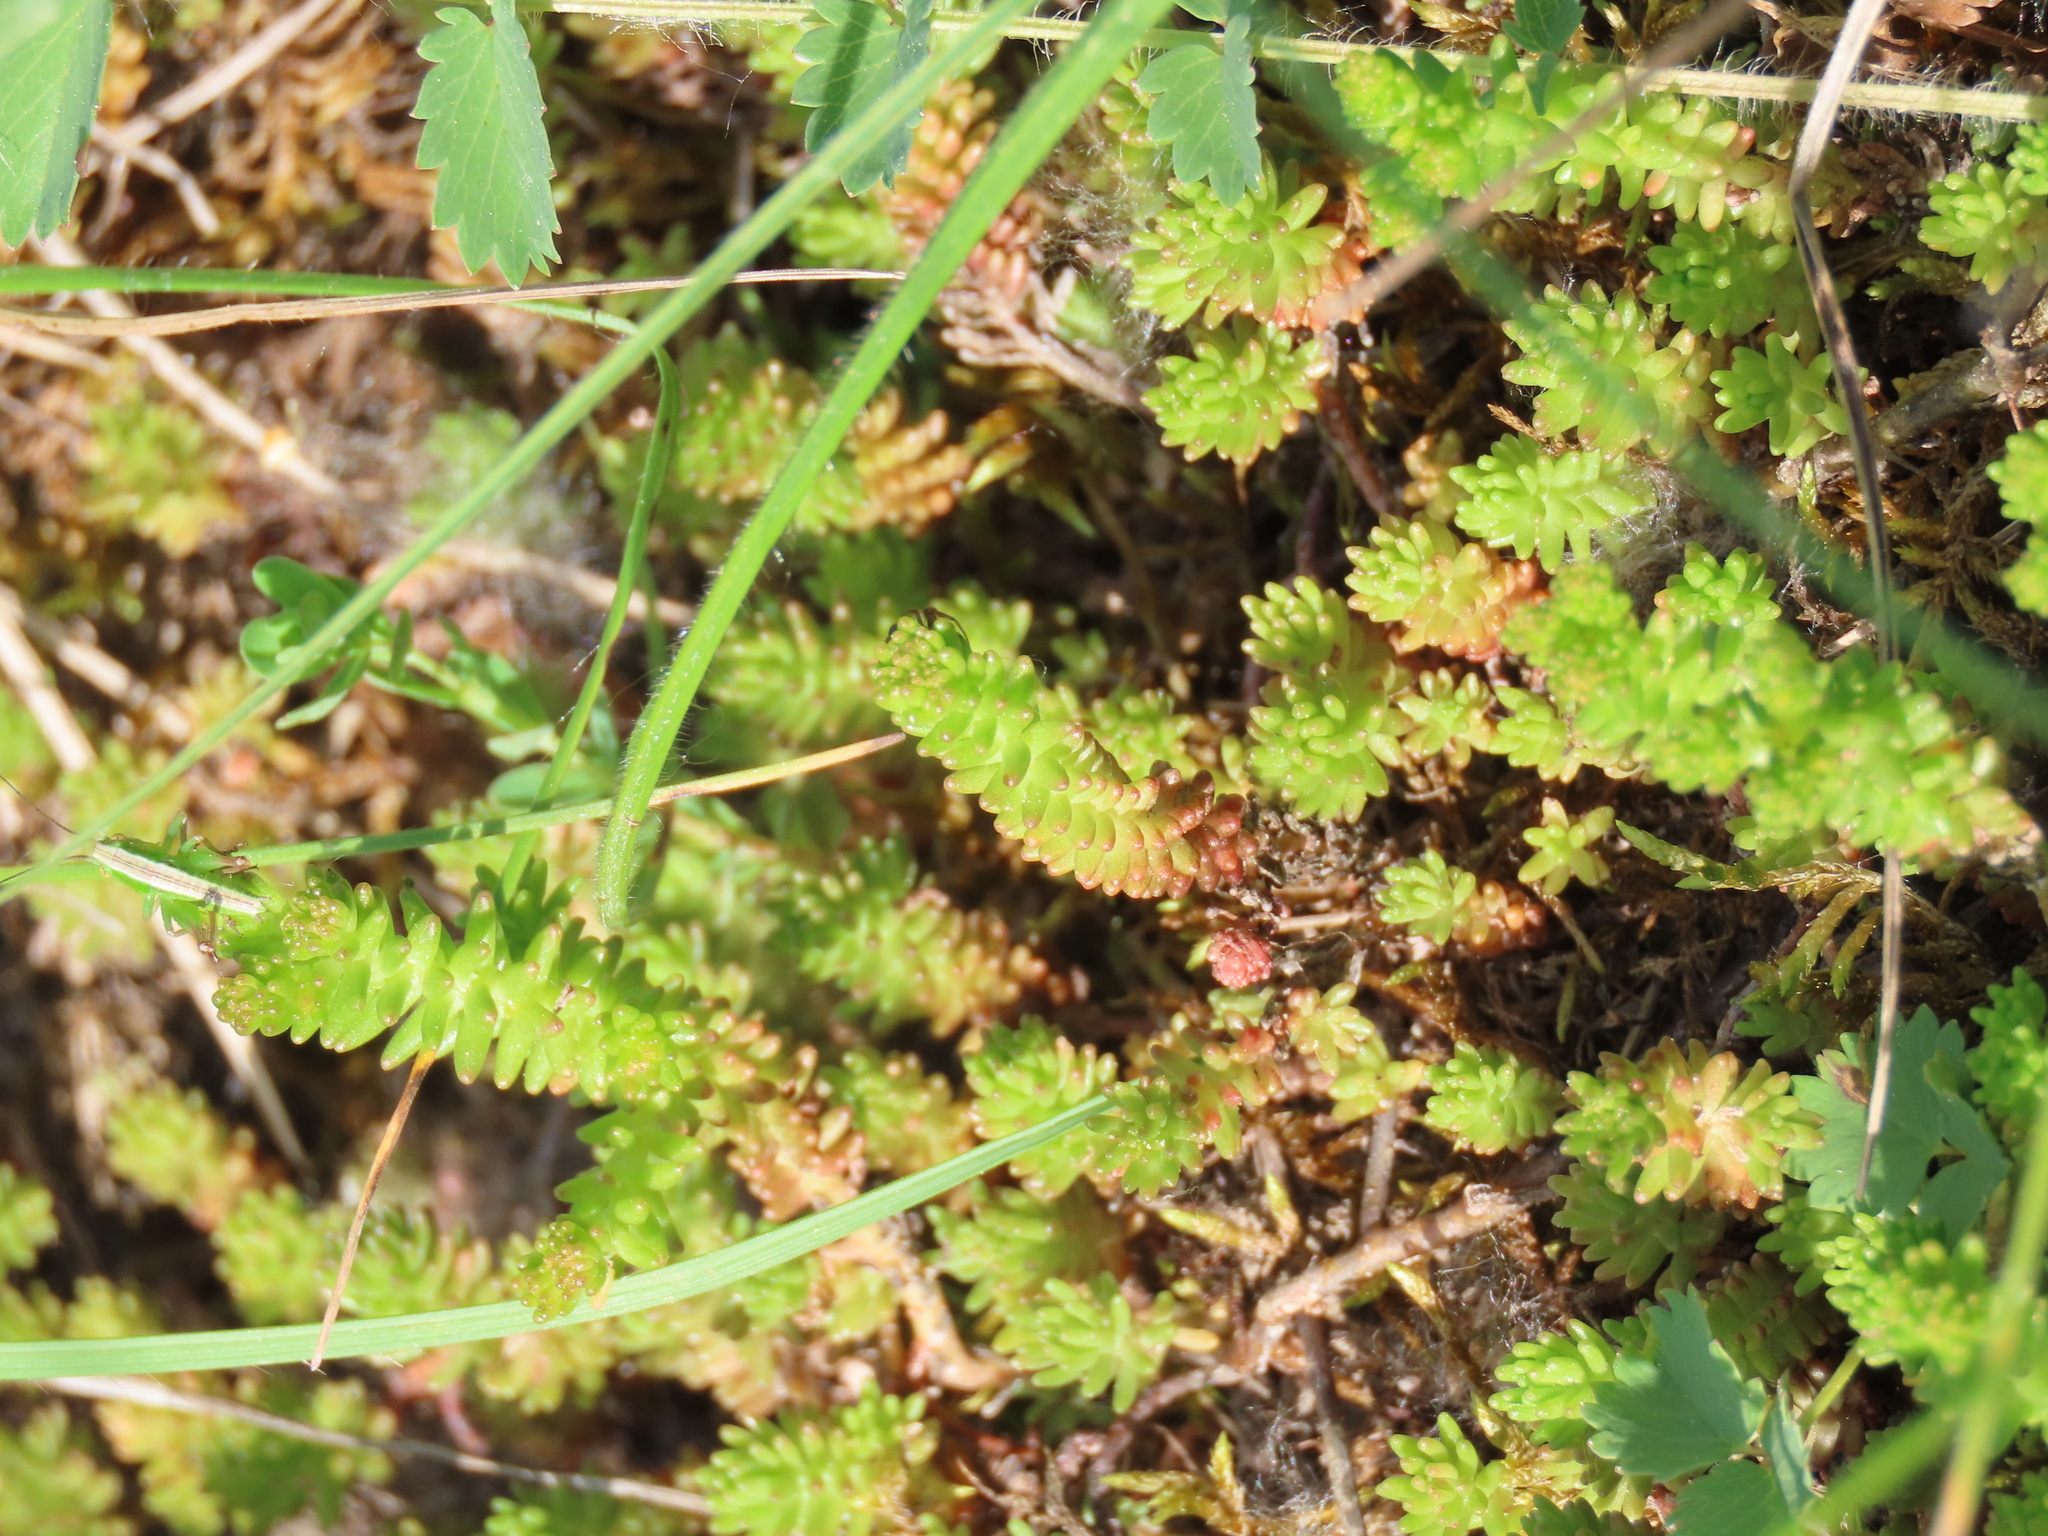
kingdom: Plantae
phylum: Tracheophyta
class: Magnoliopsida
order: Saxifragales
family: Crassulaceae
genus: Sedum
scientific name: Sedum sexangulare
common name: Tasteless stonecrop
